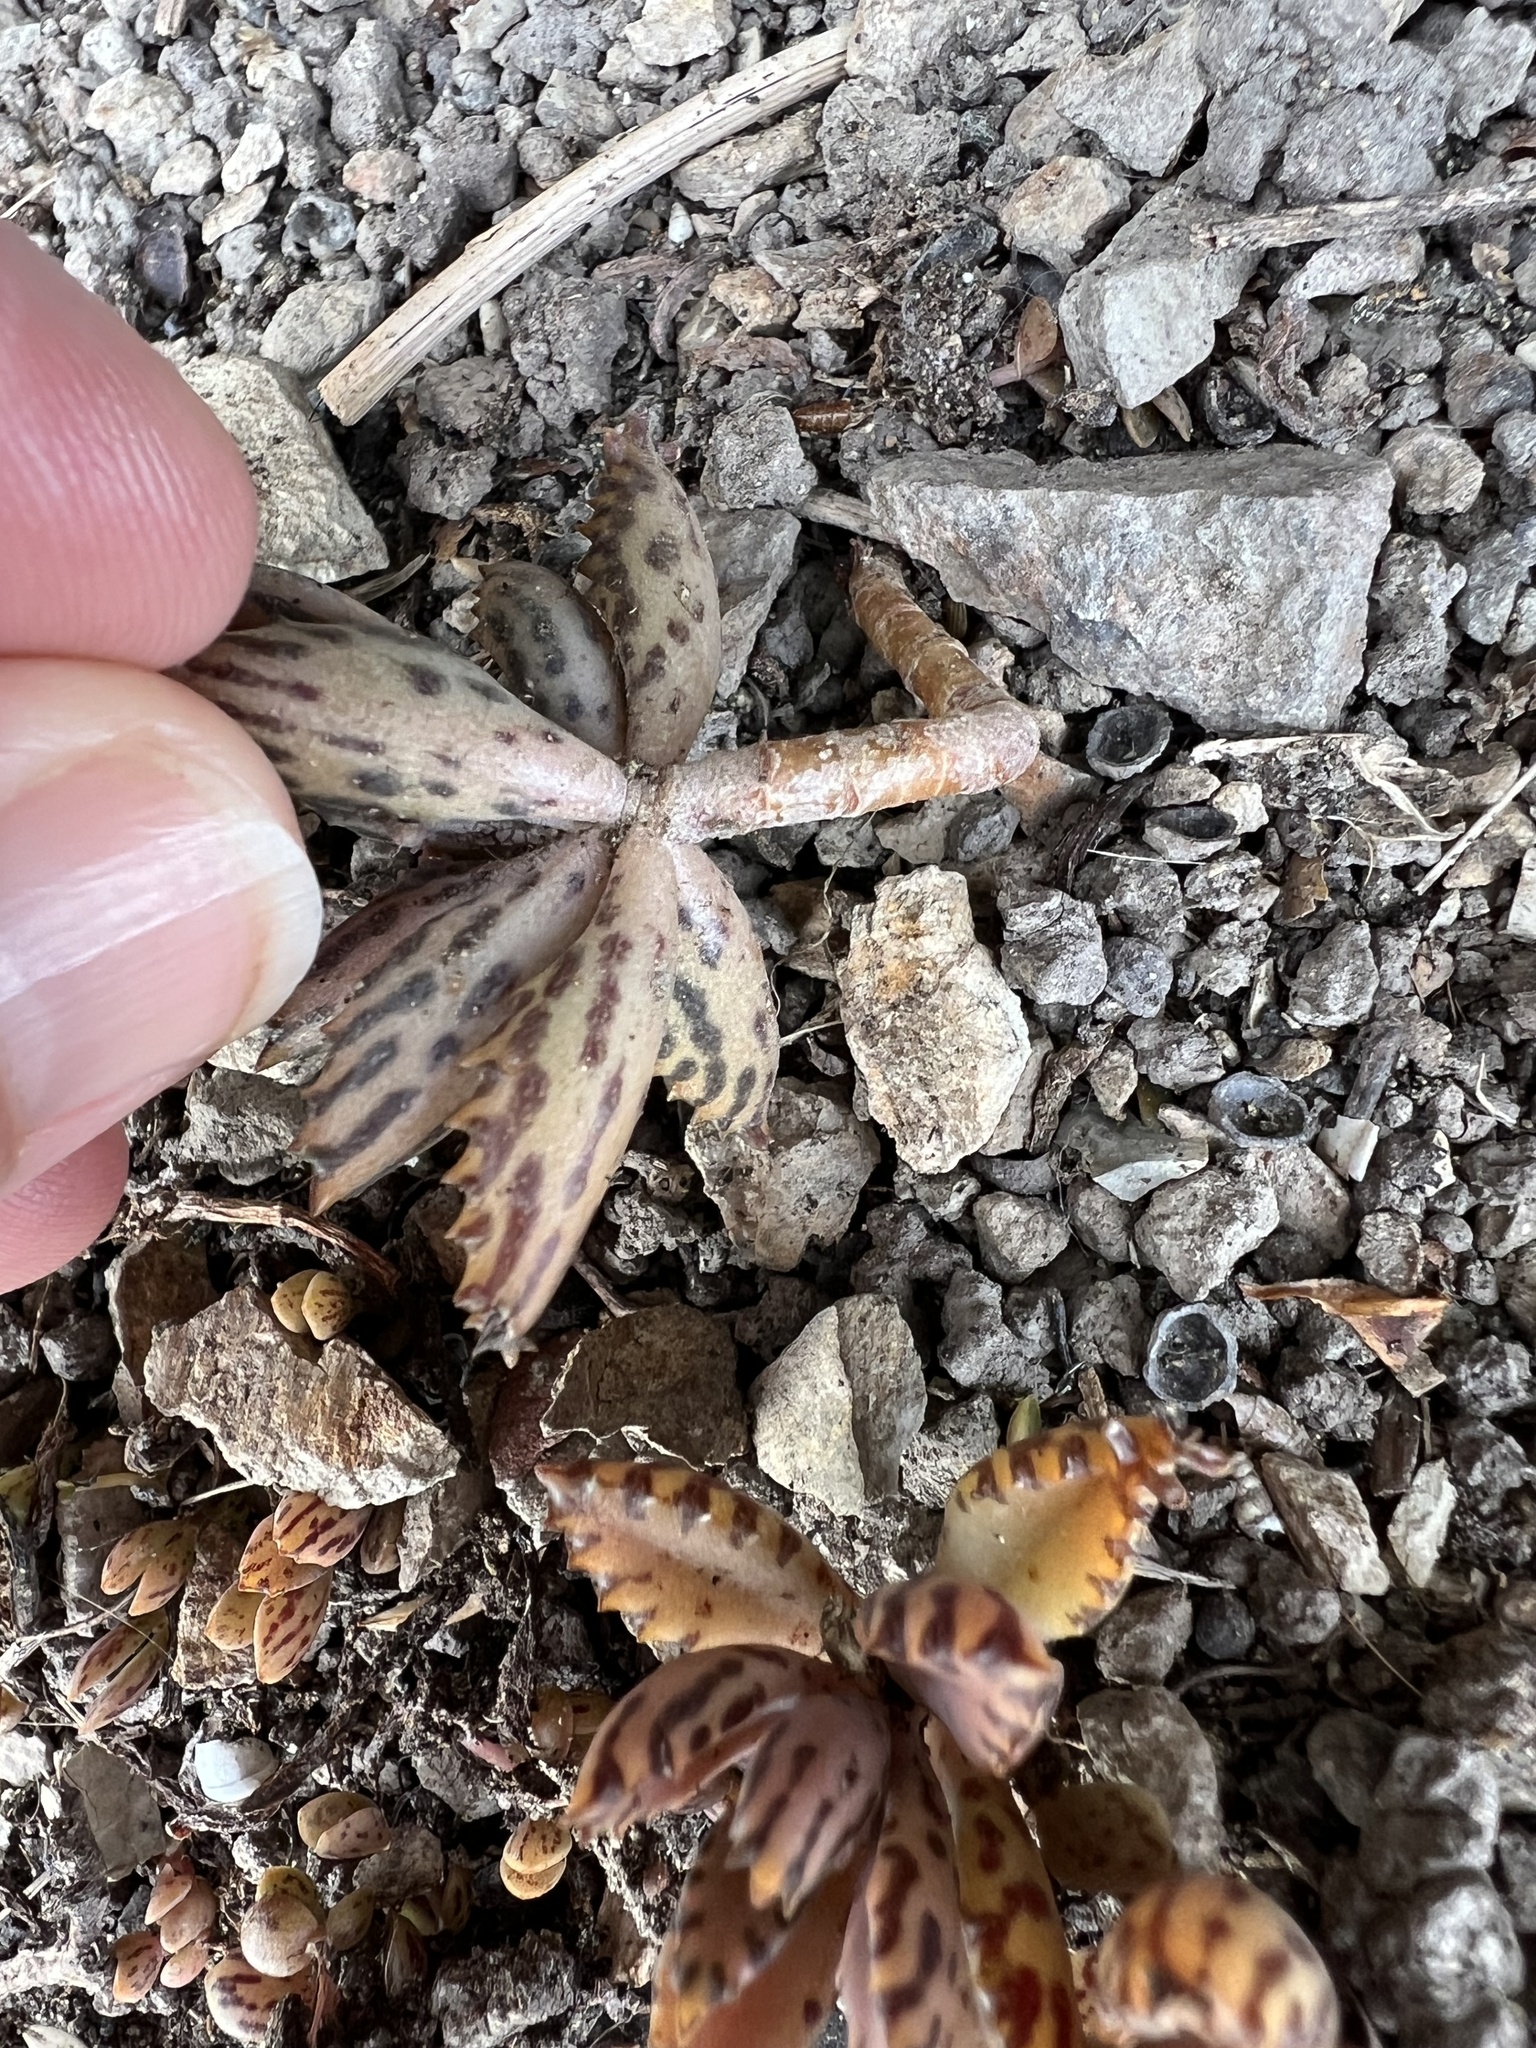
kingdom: Plantae
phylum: Tracheophyta
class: Magnoliopsida
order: Saxifragales
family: Crassulaceae
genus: Kalanchoe
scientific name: Kalanchoe houghtonii
